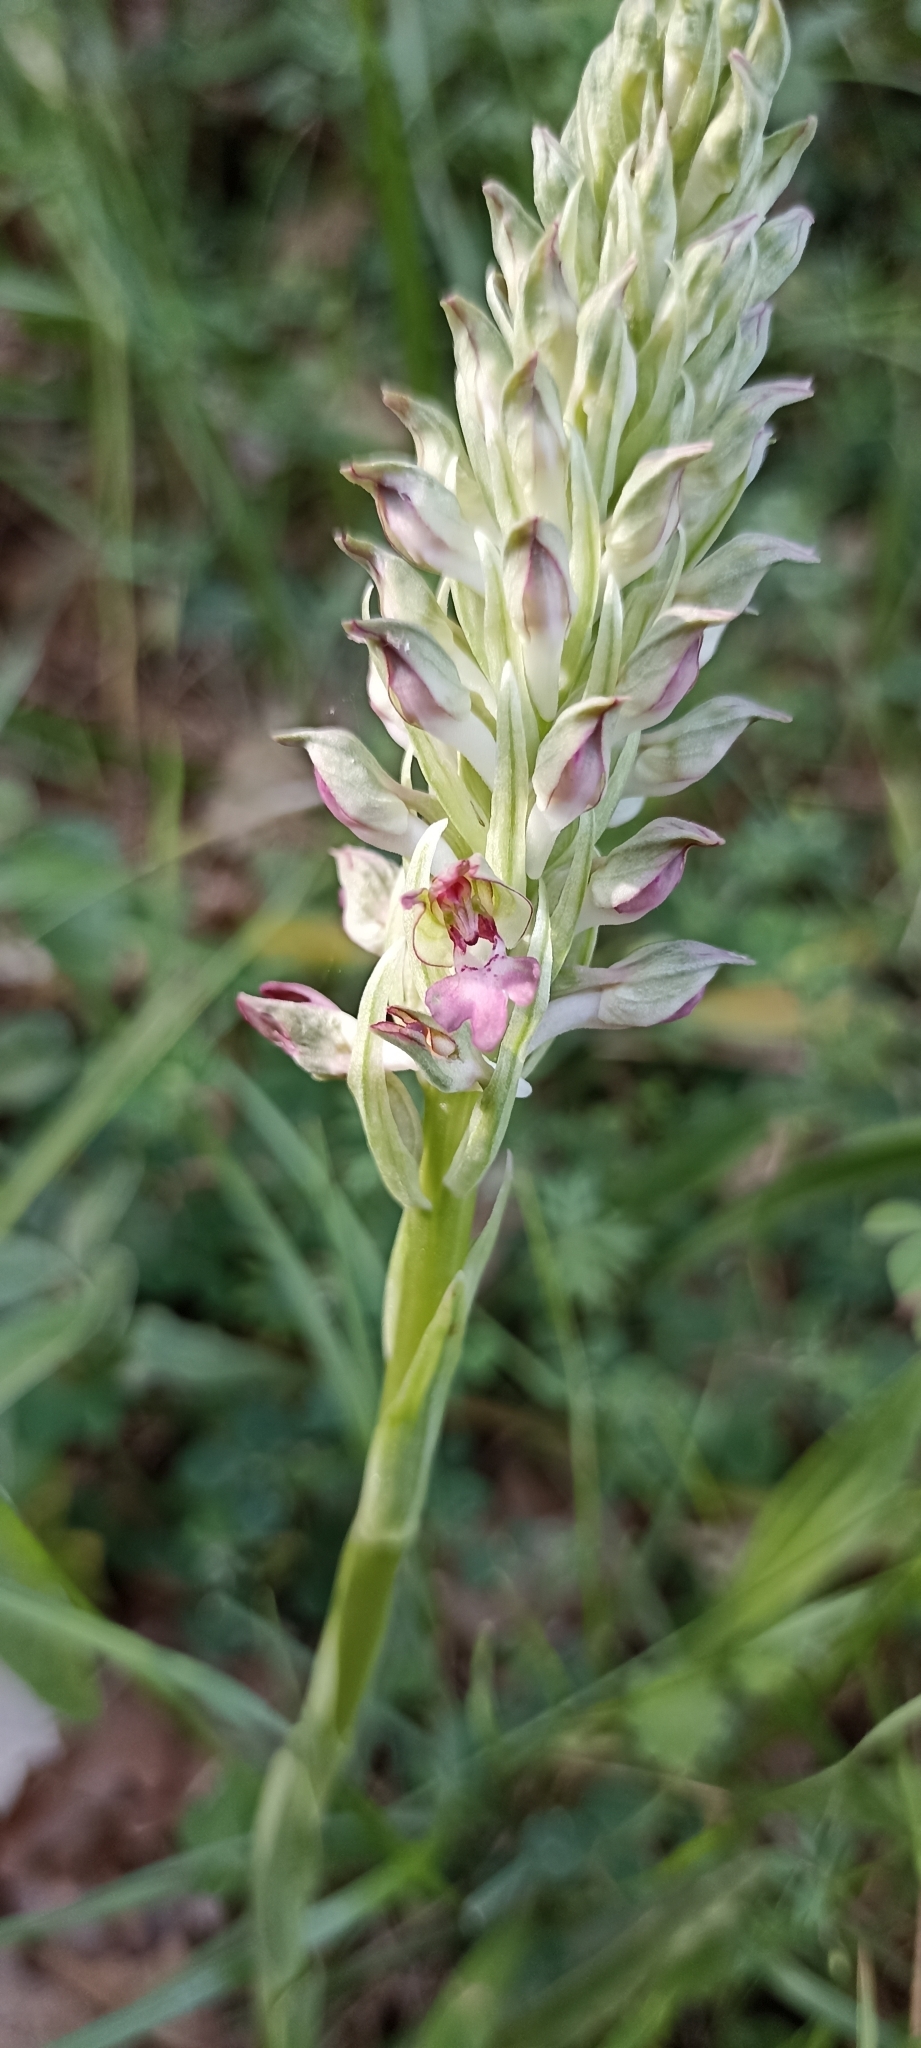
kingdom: Plantae
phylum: Tracheophyta
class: Liliopsida
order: Asparagales
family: Orchidaceae
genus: Anacamptis
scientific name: Anacamptis coriophora
